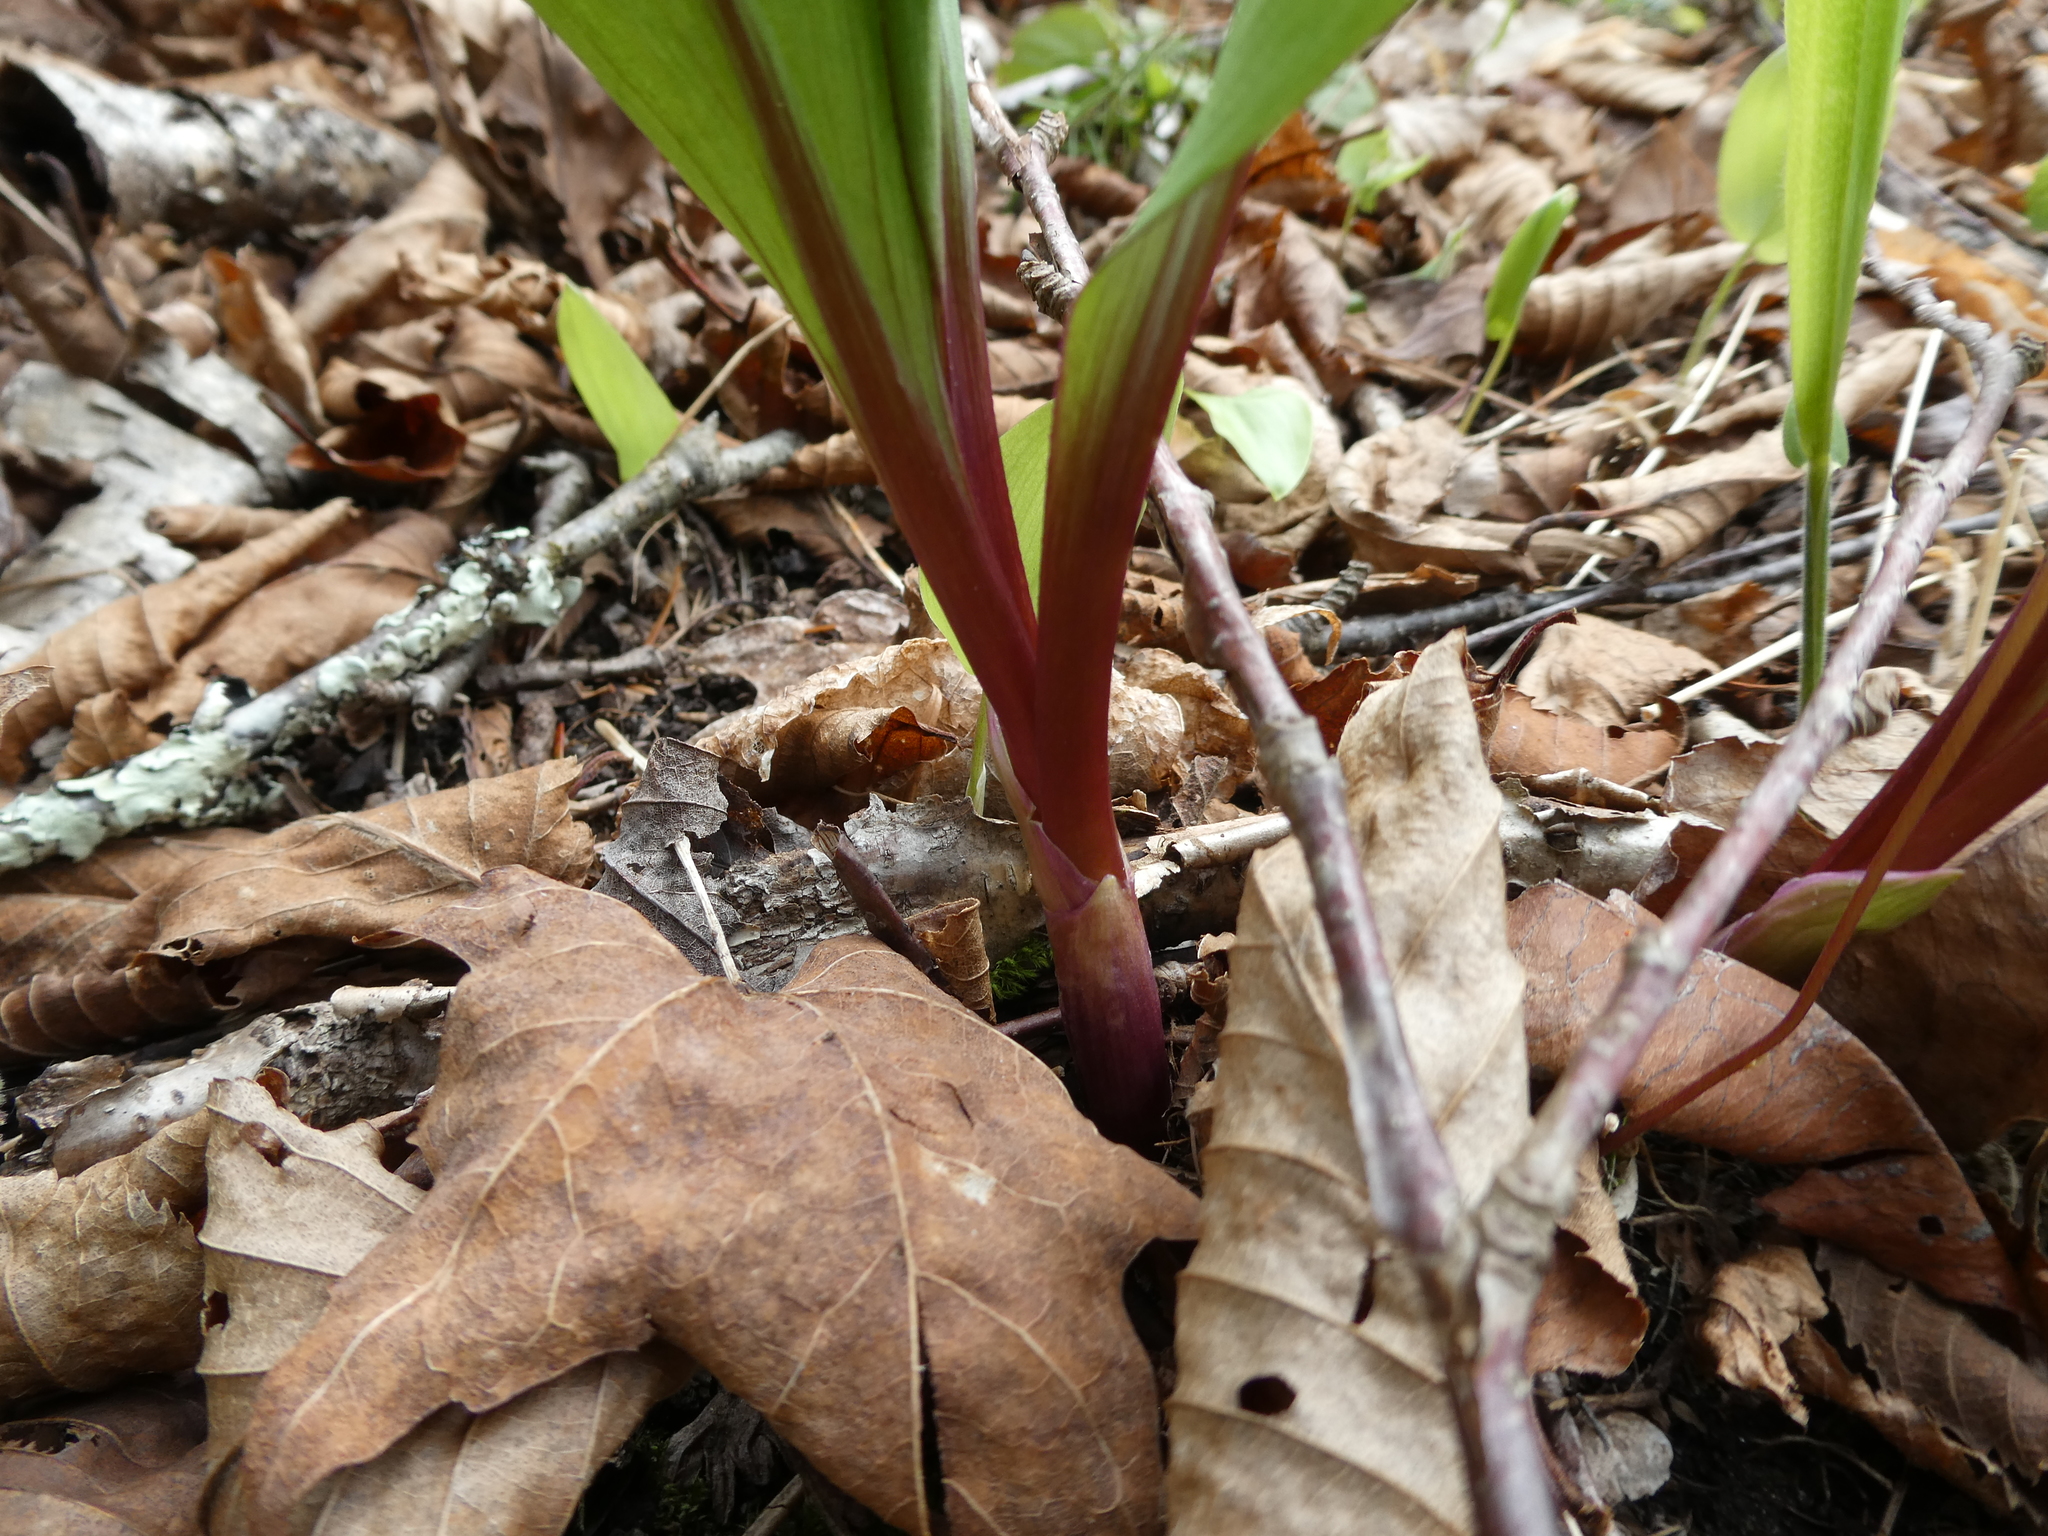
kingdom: Plantae
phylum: Tracheophyta
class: Liliopsida
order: Asparagales
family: Amaryllidaceae
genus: Allium
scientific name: Allium tricoccum
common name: Ramp
